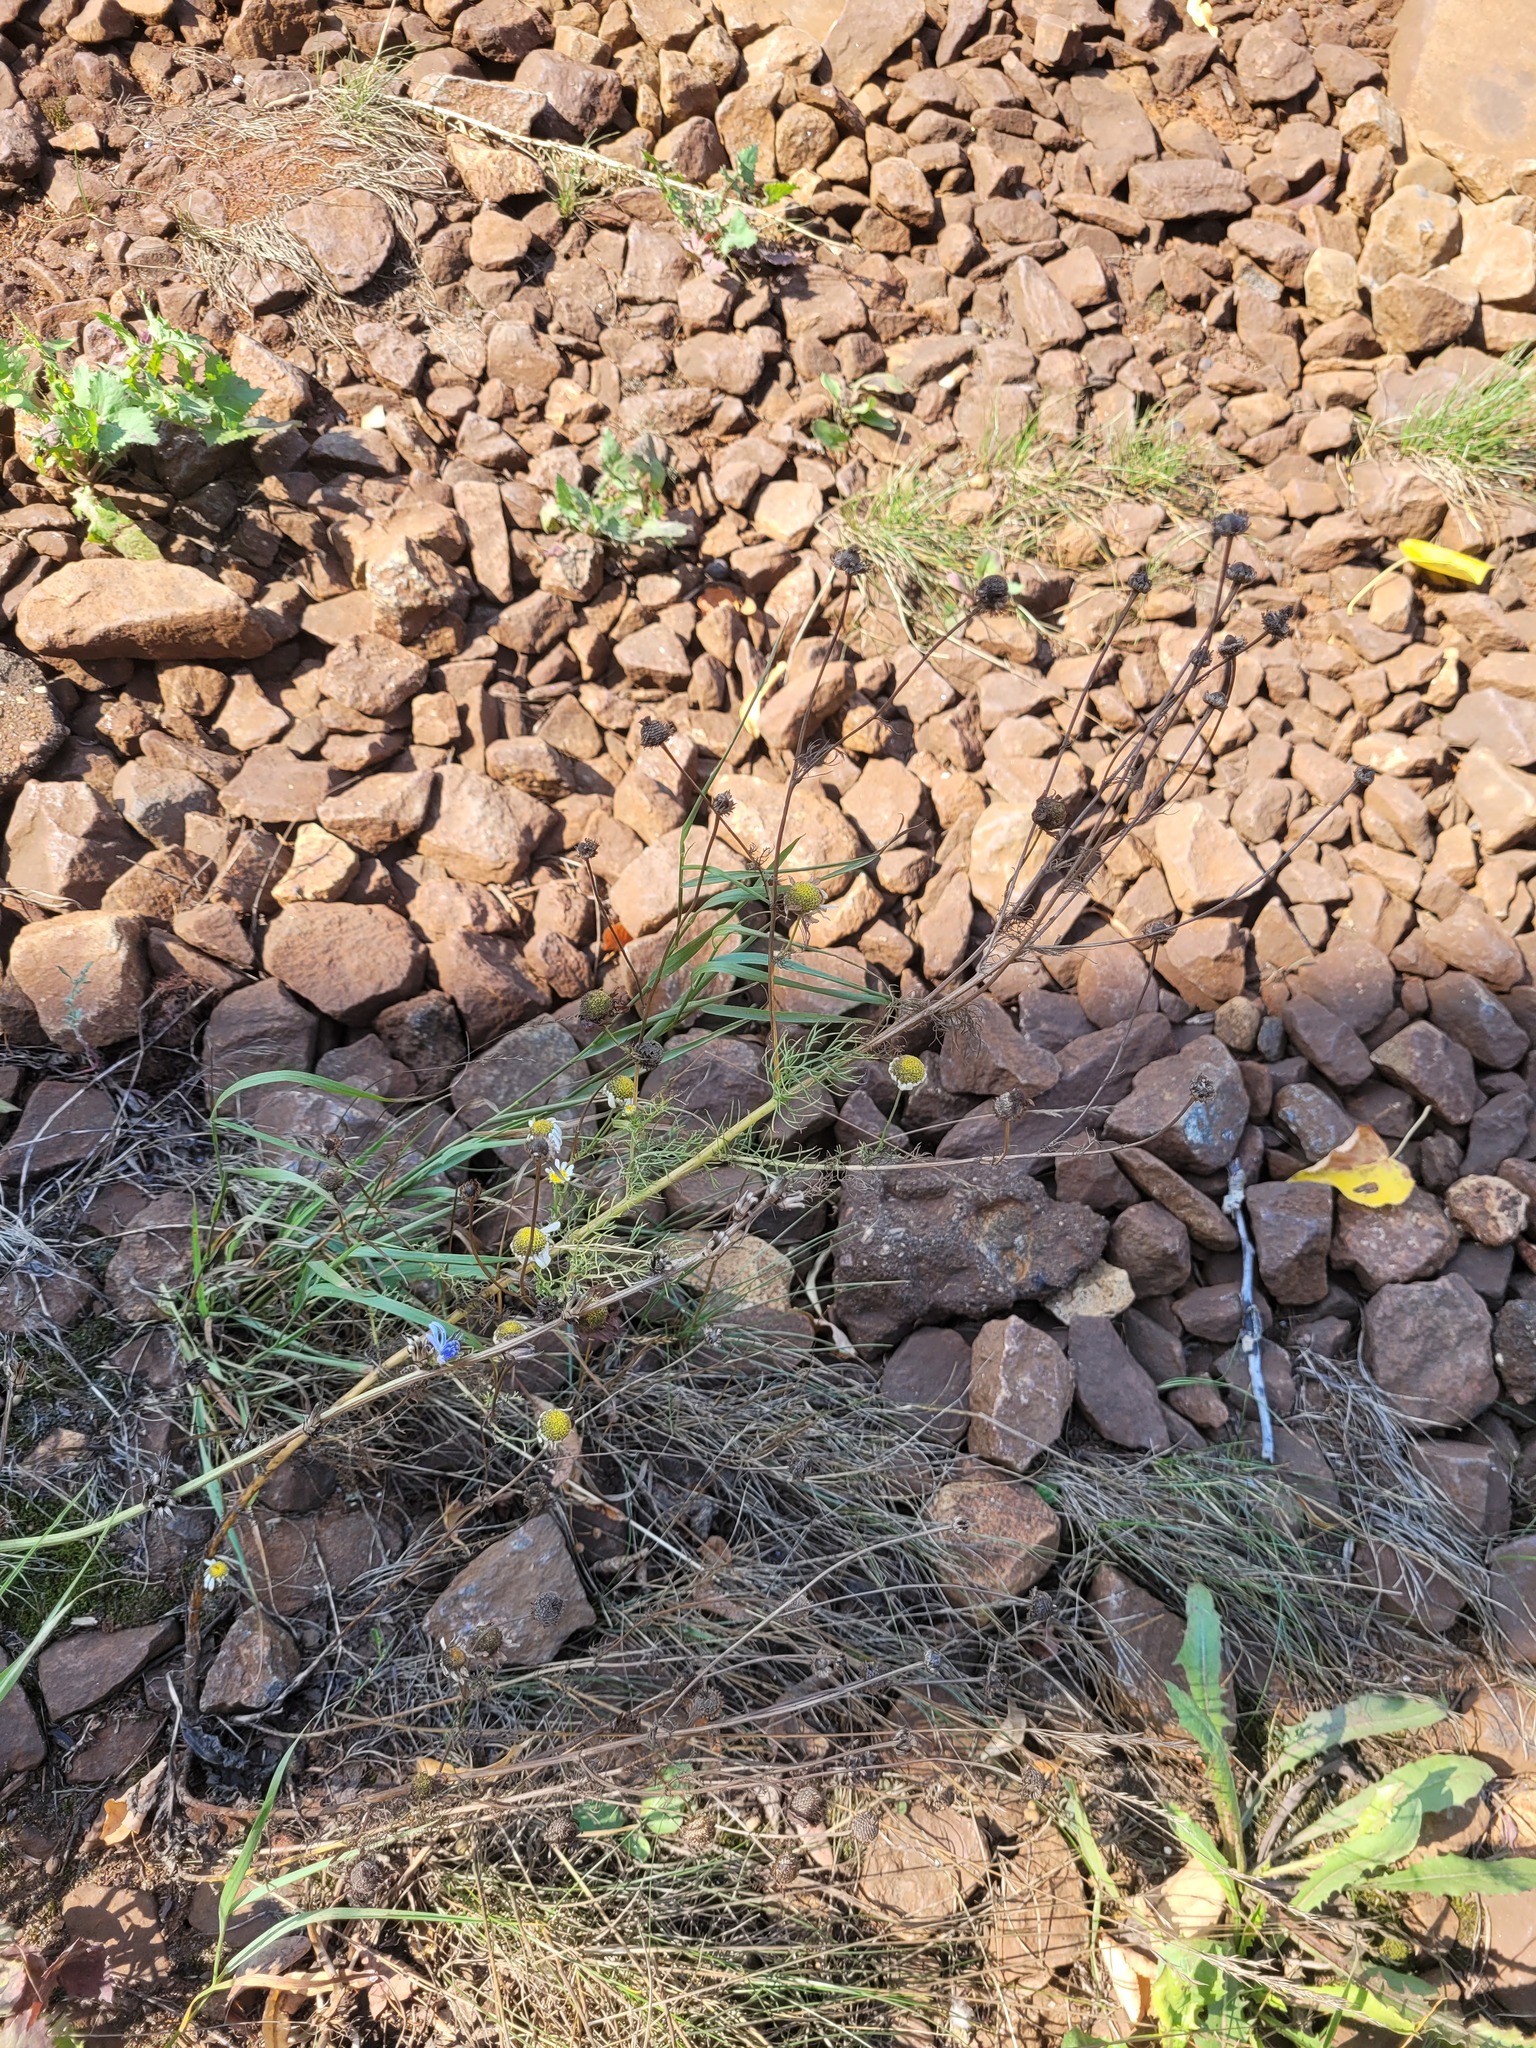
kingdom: Plantae
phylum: Tracheophyta
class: Magnoliopsida
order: Asterales
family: Asteraceae
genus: Tripleurospermum
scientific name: Tripleurospermum inodorum
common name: Scentless mayweed
